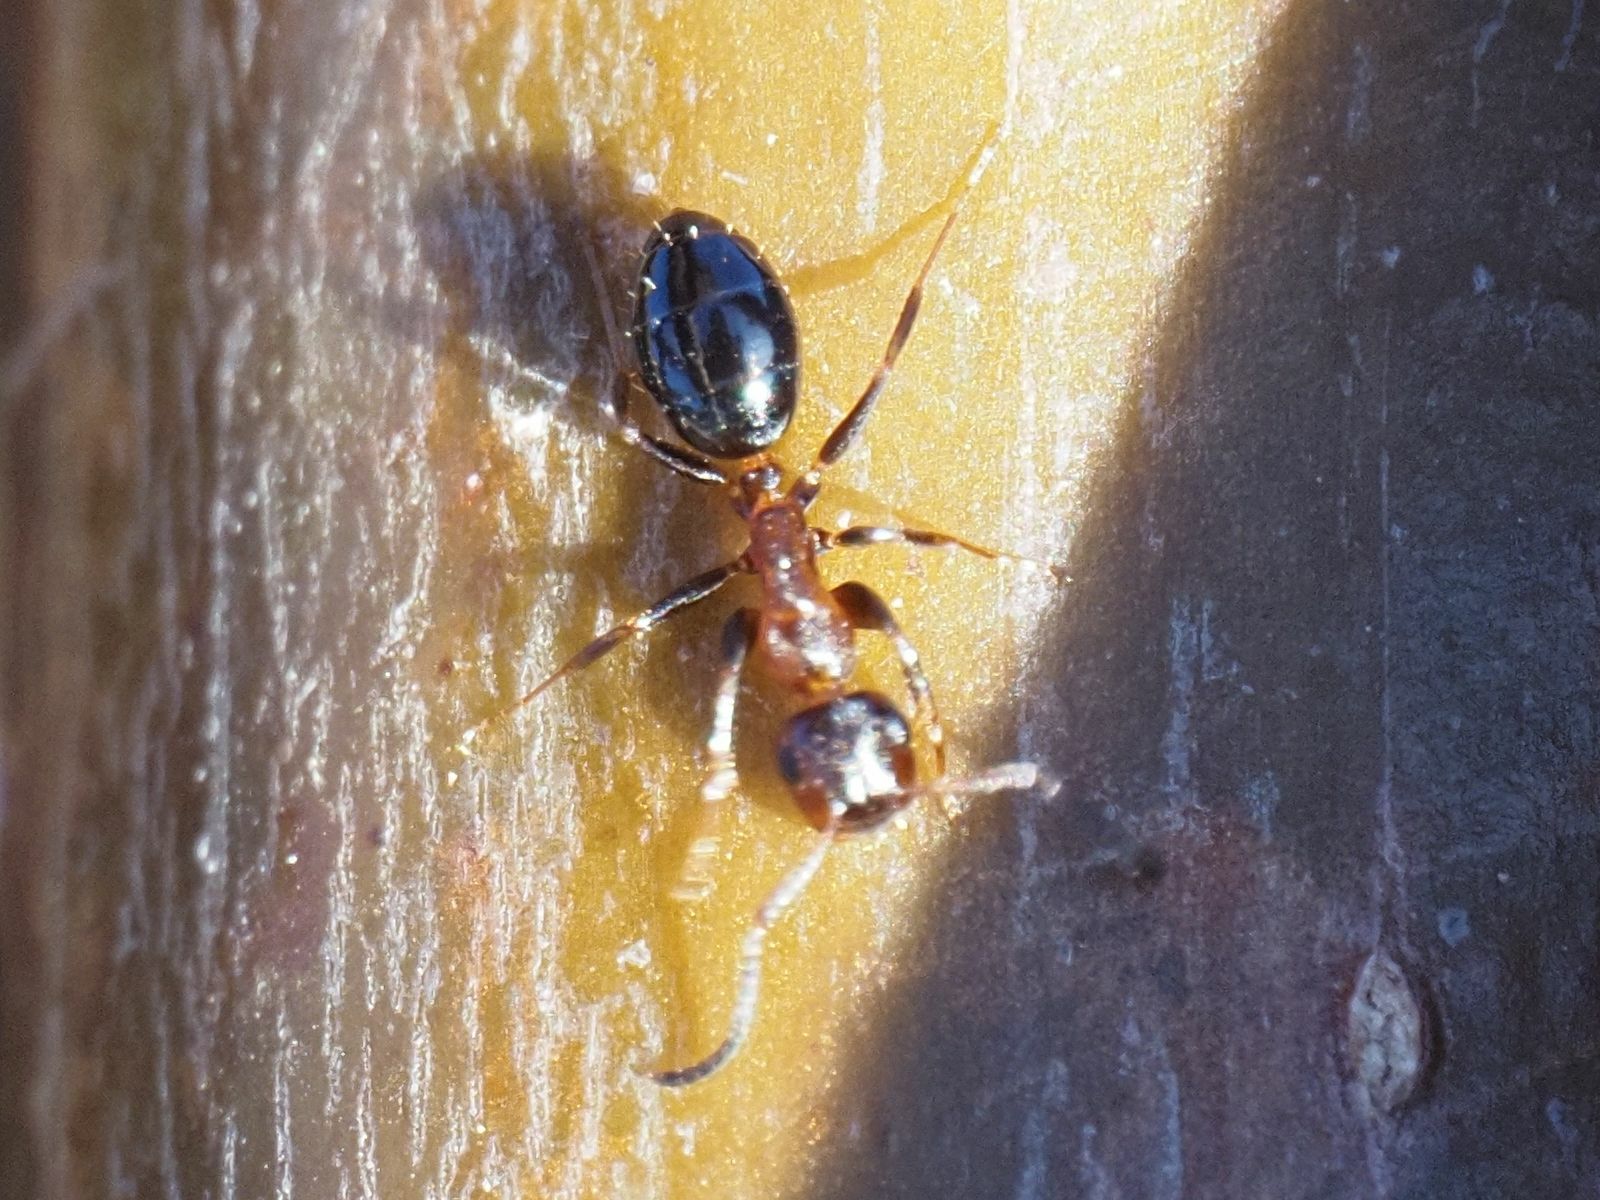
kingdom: Animalia
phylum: Arthropoda
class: Insecta
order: Hymenoptera
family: Formicidae
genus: Camponotus
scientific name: Camponotus truncatus
